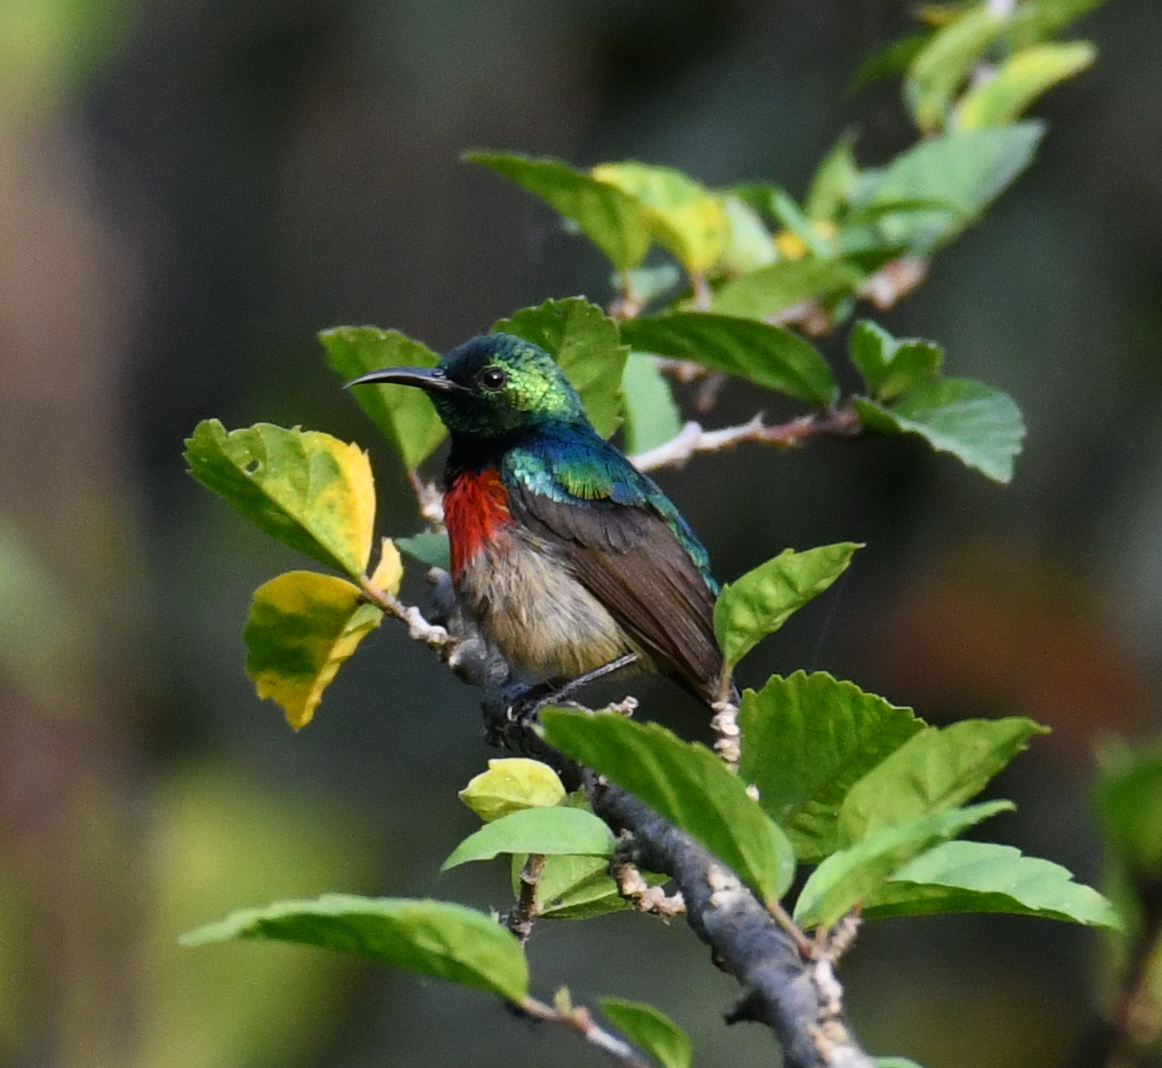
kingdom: Animalia
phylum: Chordata
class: Aves
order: Passeriformes
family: Nectariniidae
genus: Cinnyris
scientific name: Cinnyris chloropygius
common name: Olive-bellied sunbird
